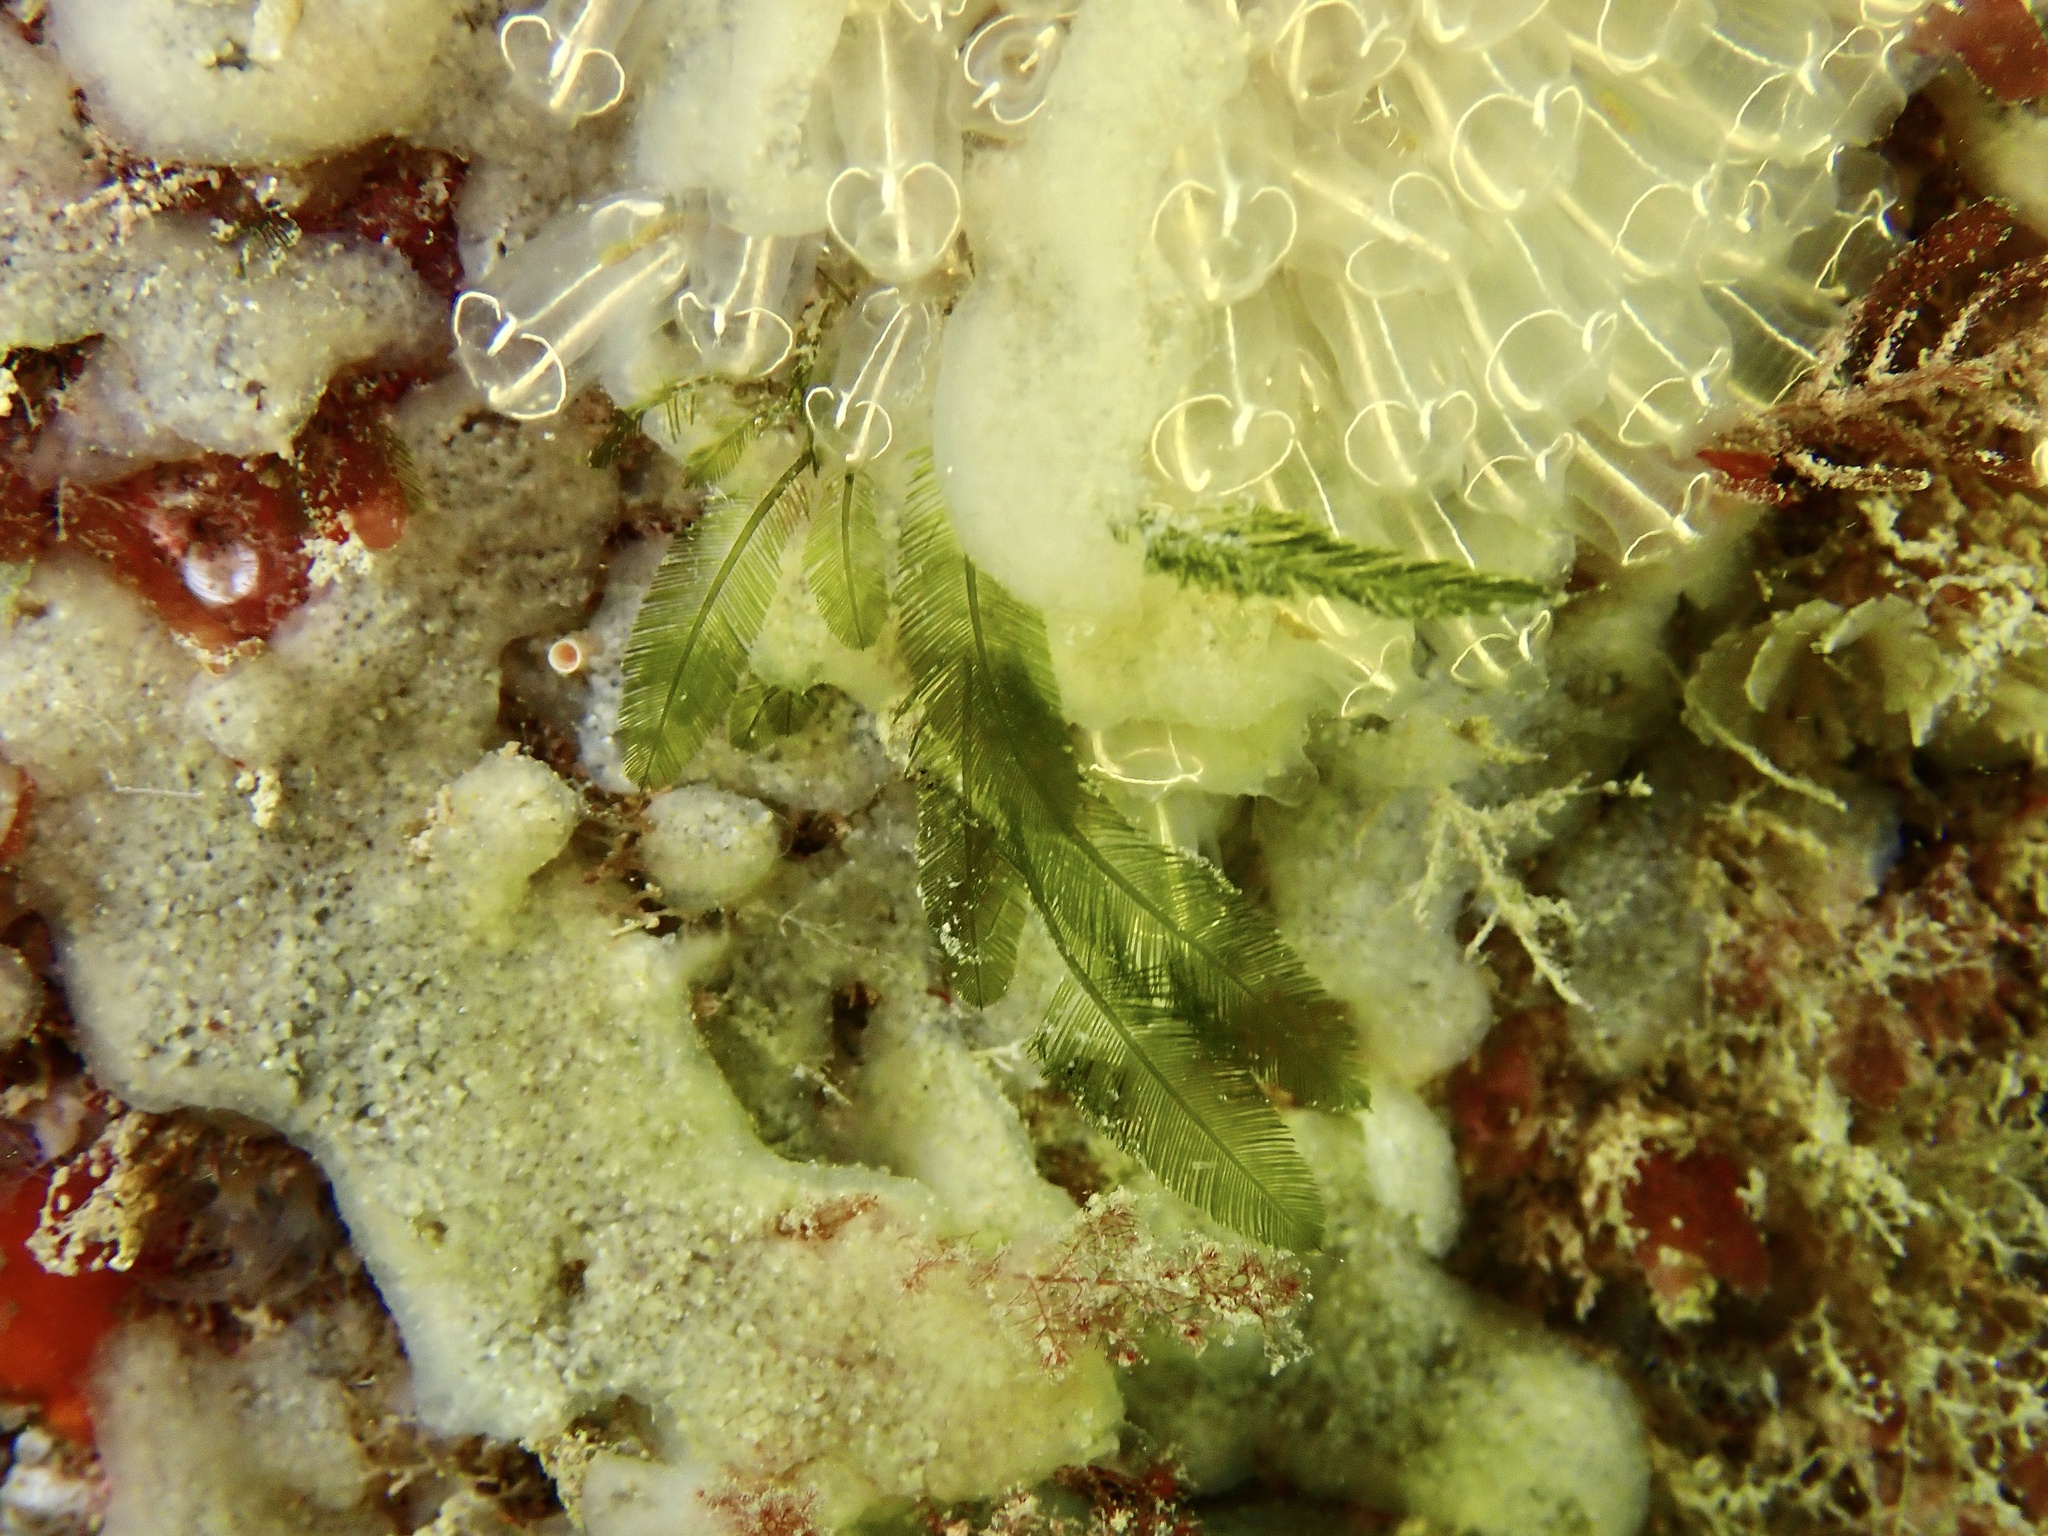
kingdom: Plantae
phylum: Chlorophyta
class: Ulvophyceae
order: Bryopsidales
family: Bryopsidaceae
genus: Bryopsis
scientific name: Bryopsis plumosa
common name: Hen pen
